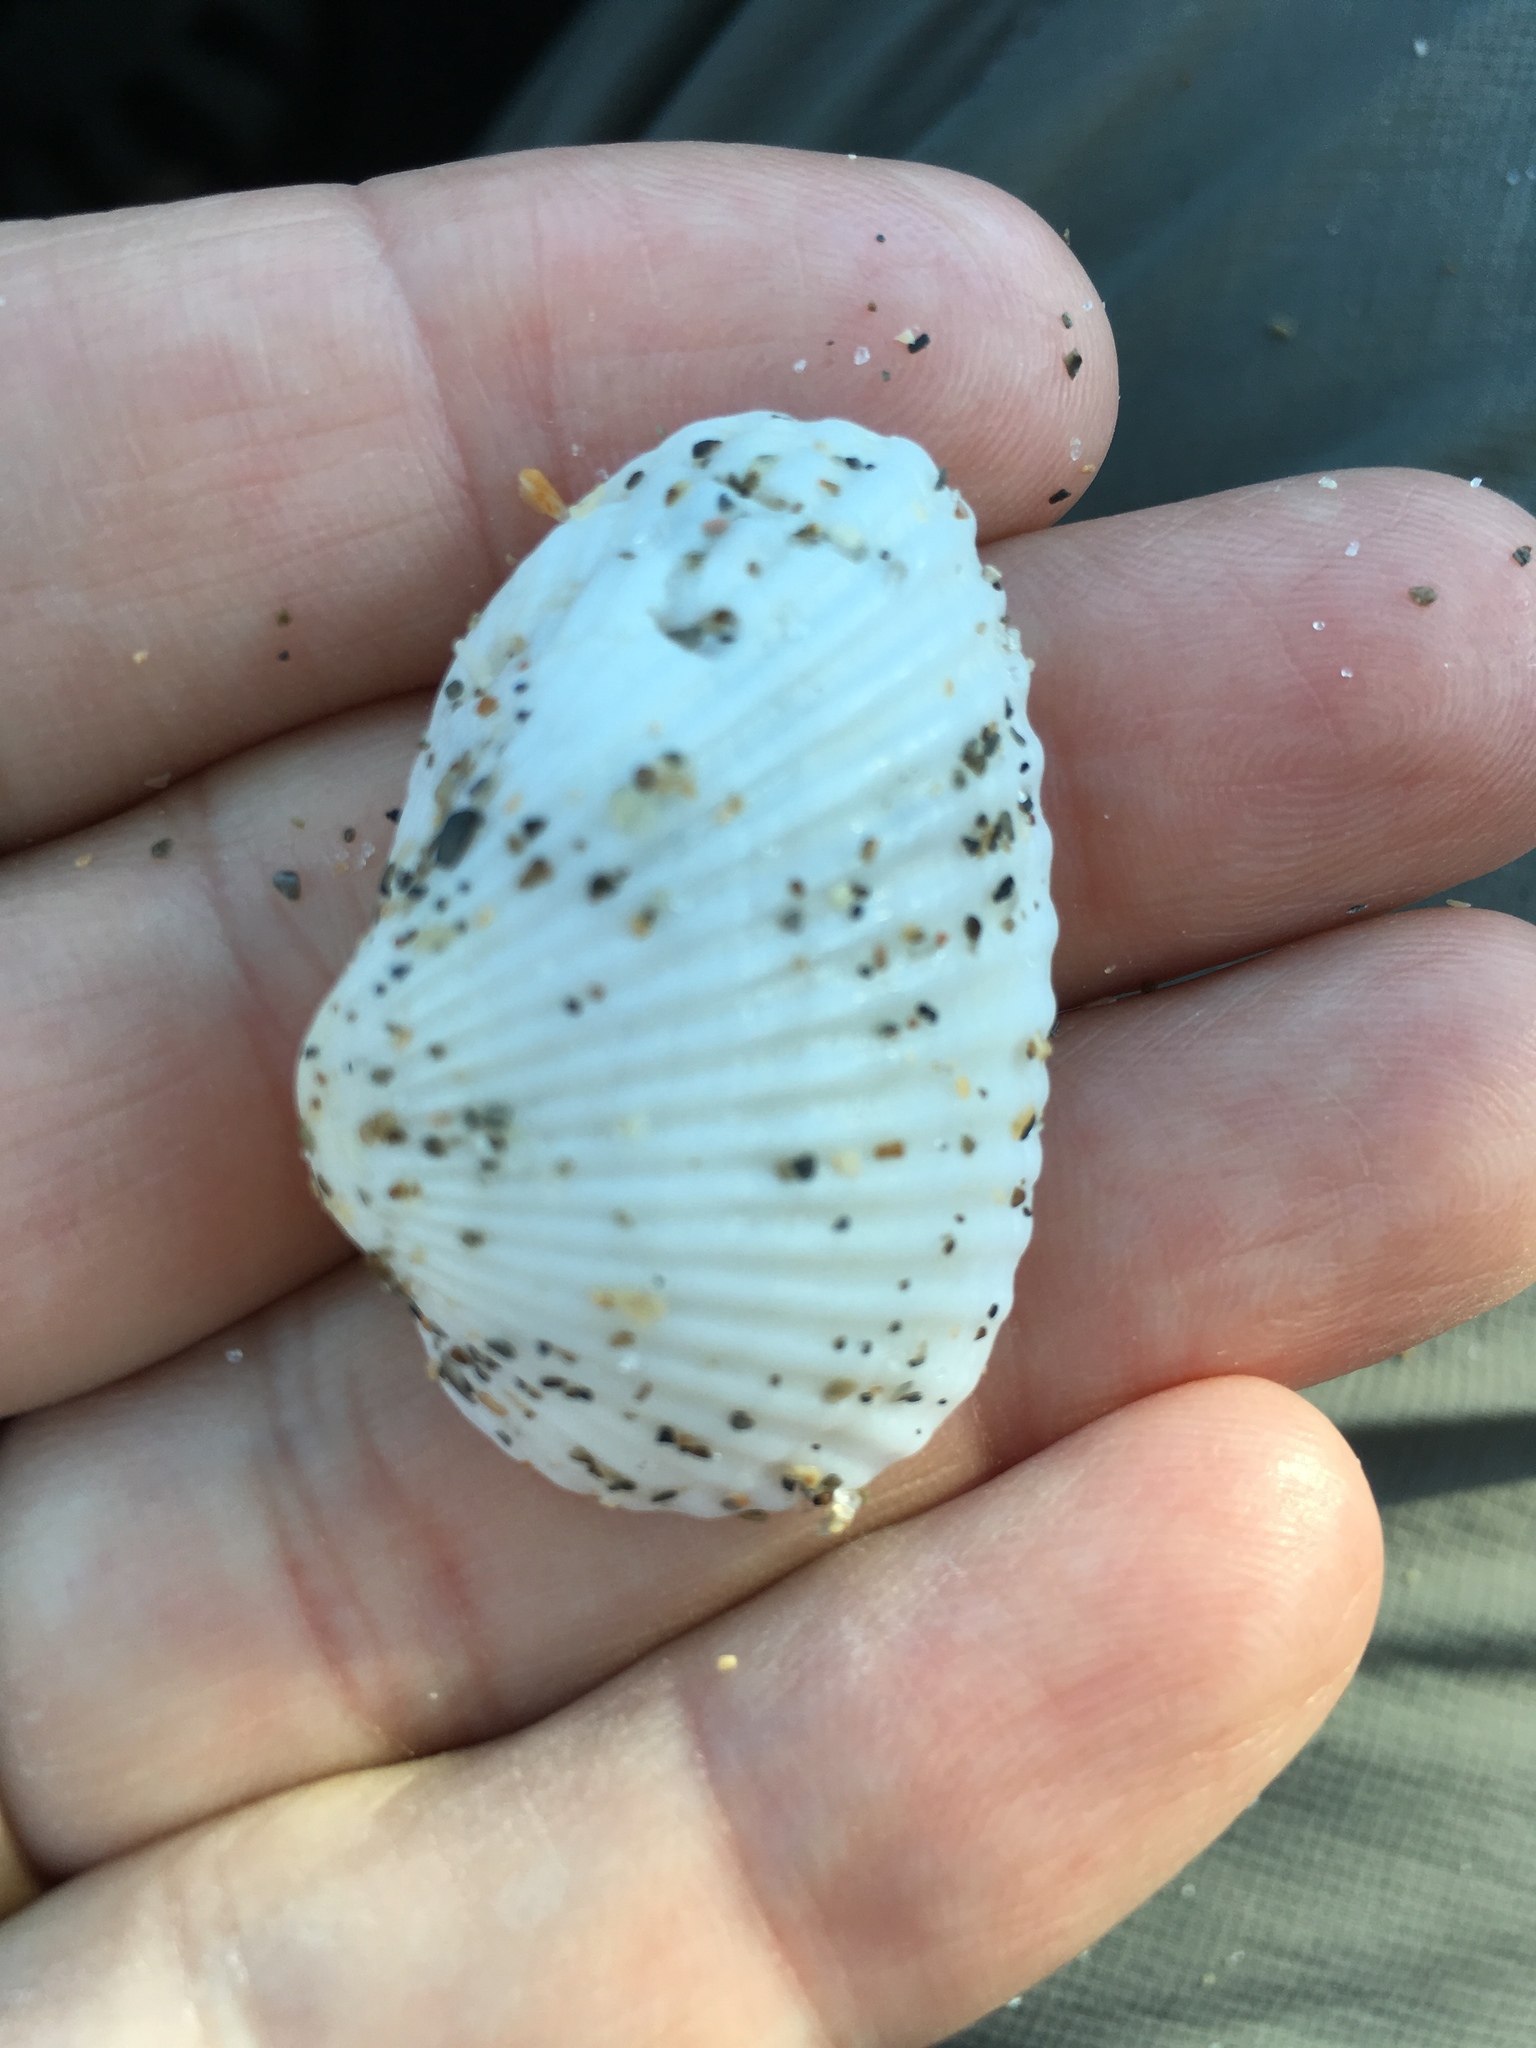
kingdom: Animalia
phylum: Mollusca
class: Bivalvia
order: Arcida
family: Arcidae
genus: Anadara
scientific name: Anadara transversa
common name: Transverse ark
